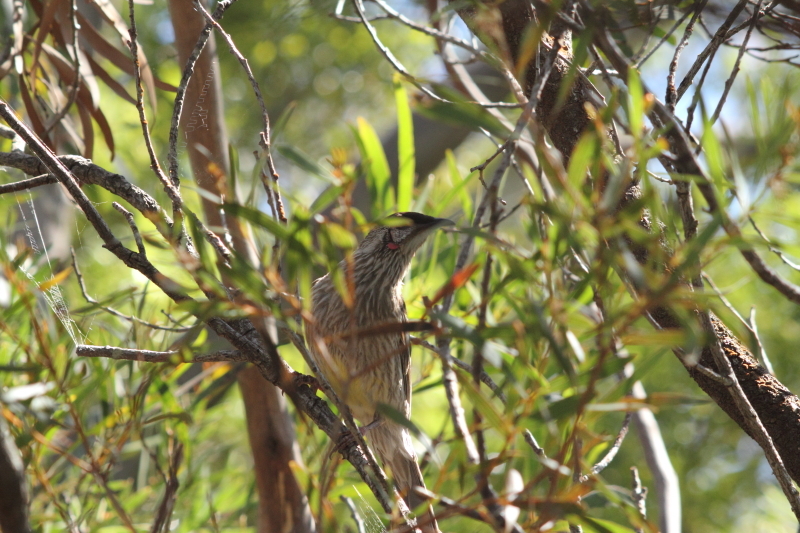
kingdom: Animalia
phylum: Chordata
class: Aves
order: Passeriformes
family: Meliphagidae
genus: Anthochaera
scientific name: Anthochaera carunculata
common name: Red wattlebird
